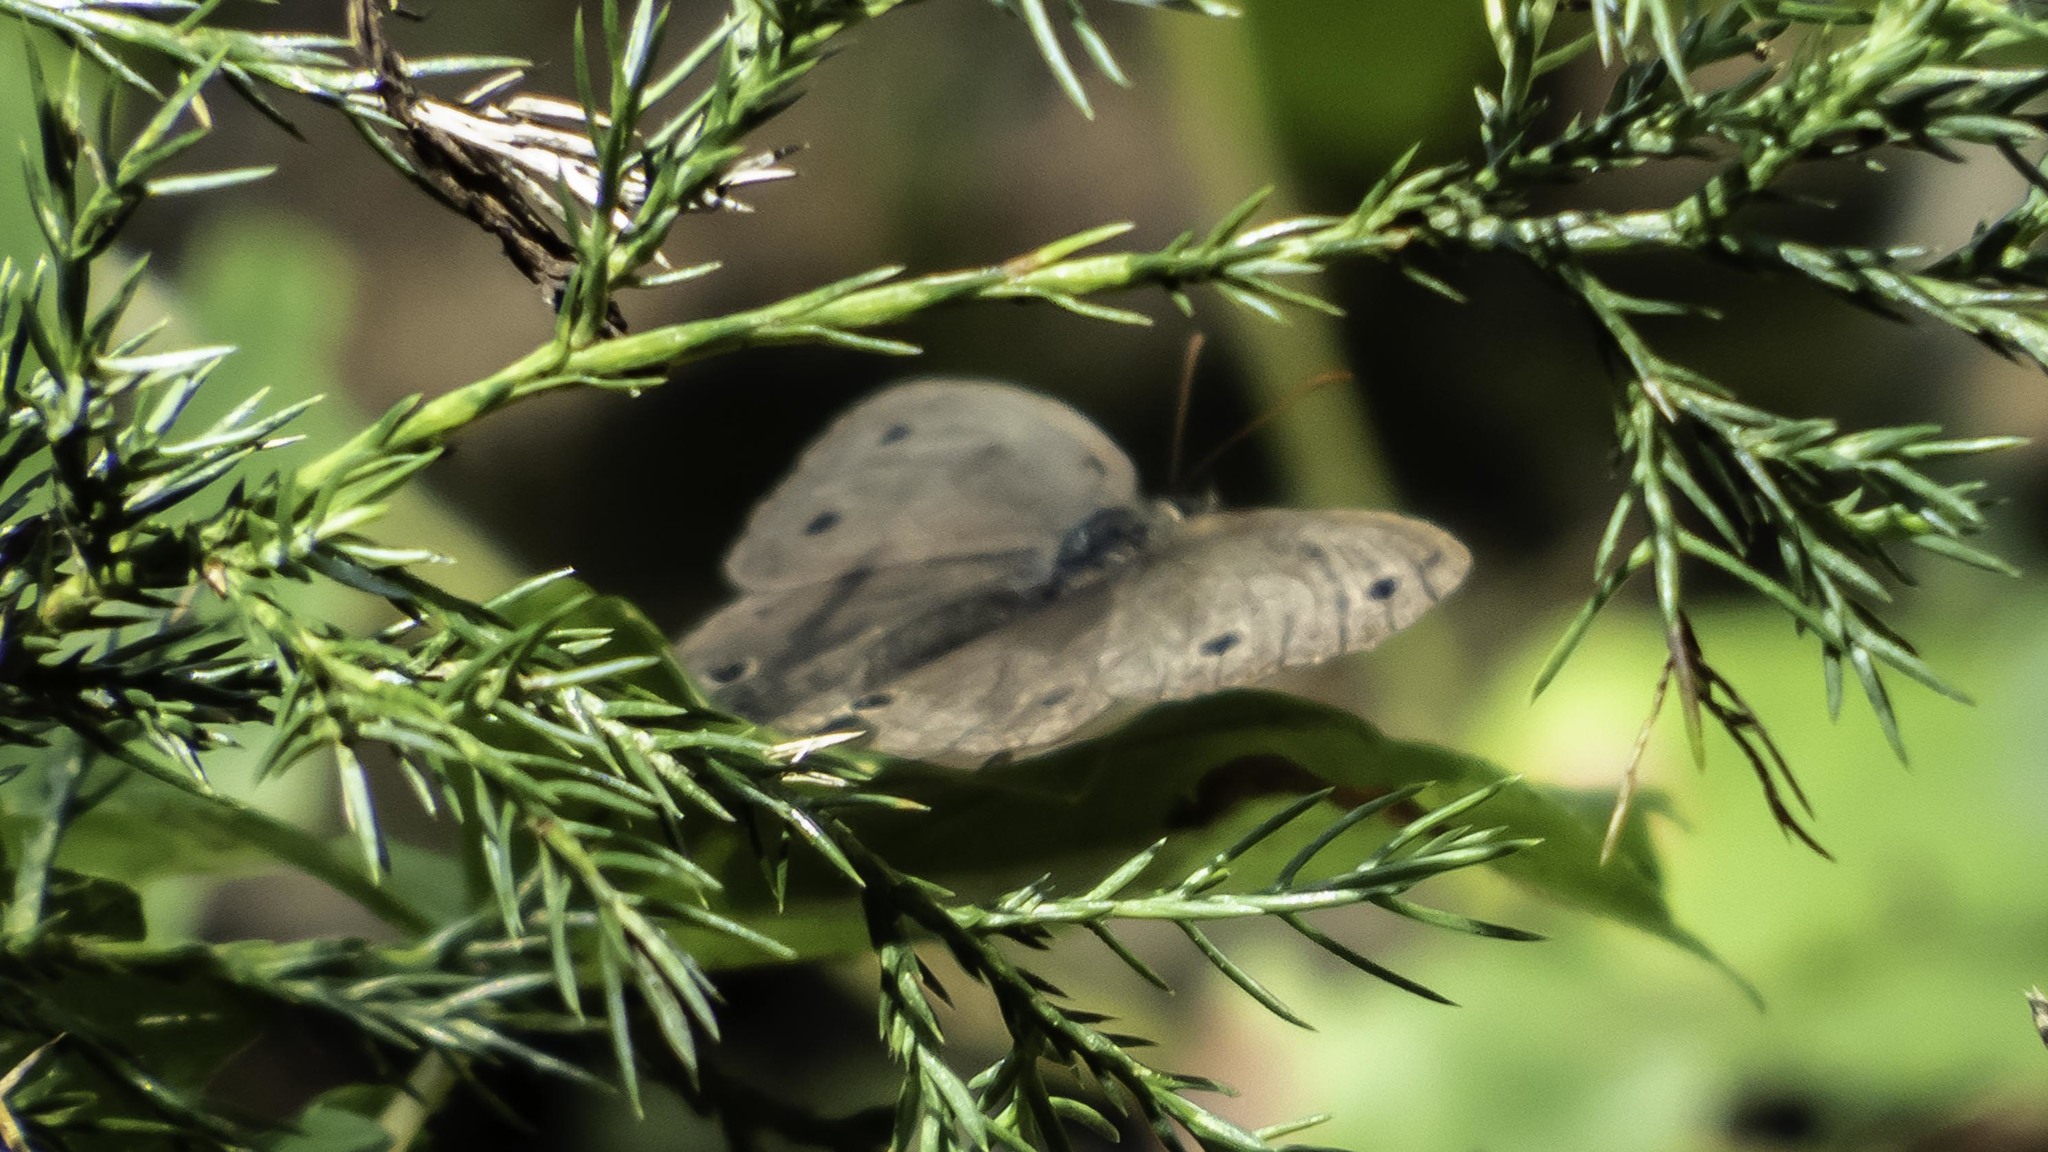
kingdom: Animalia
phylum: Arthropoda
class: Insecta
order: Lepidoptera
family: Nymphalidae
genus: Euptychia
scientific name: Euptychia cymela
